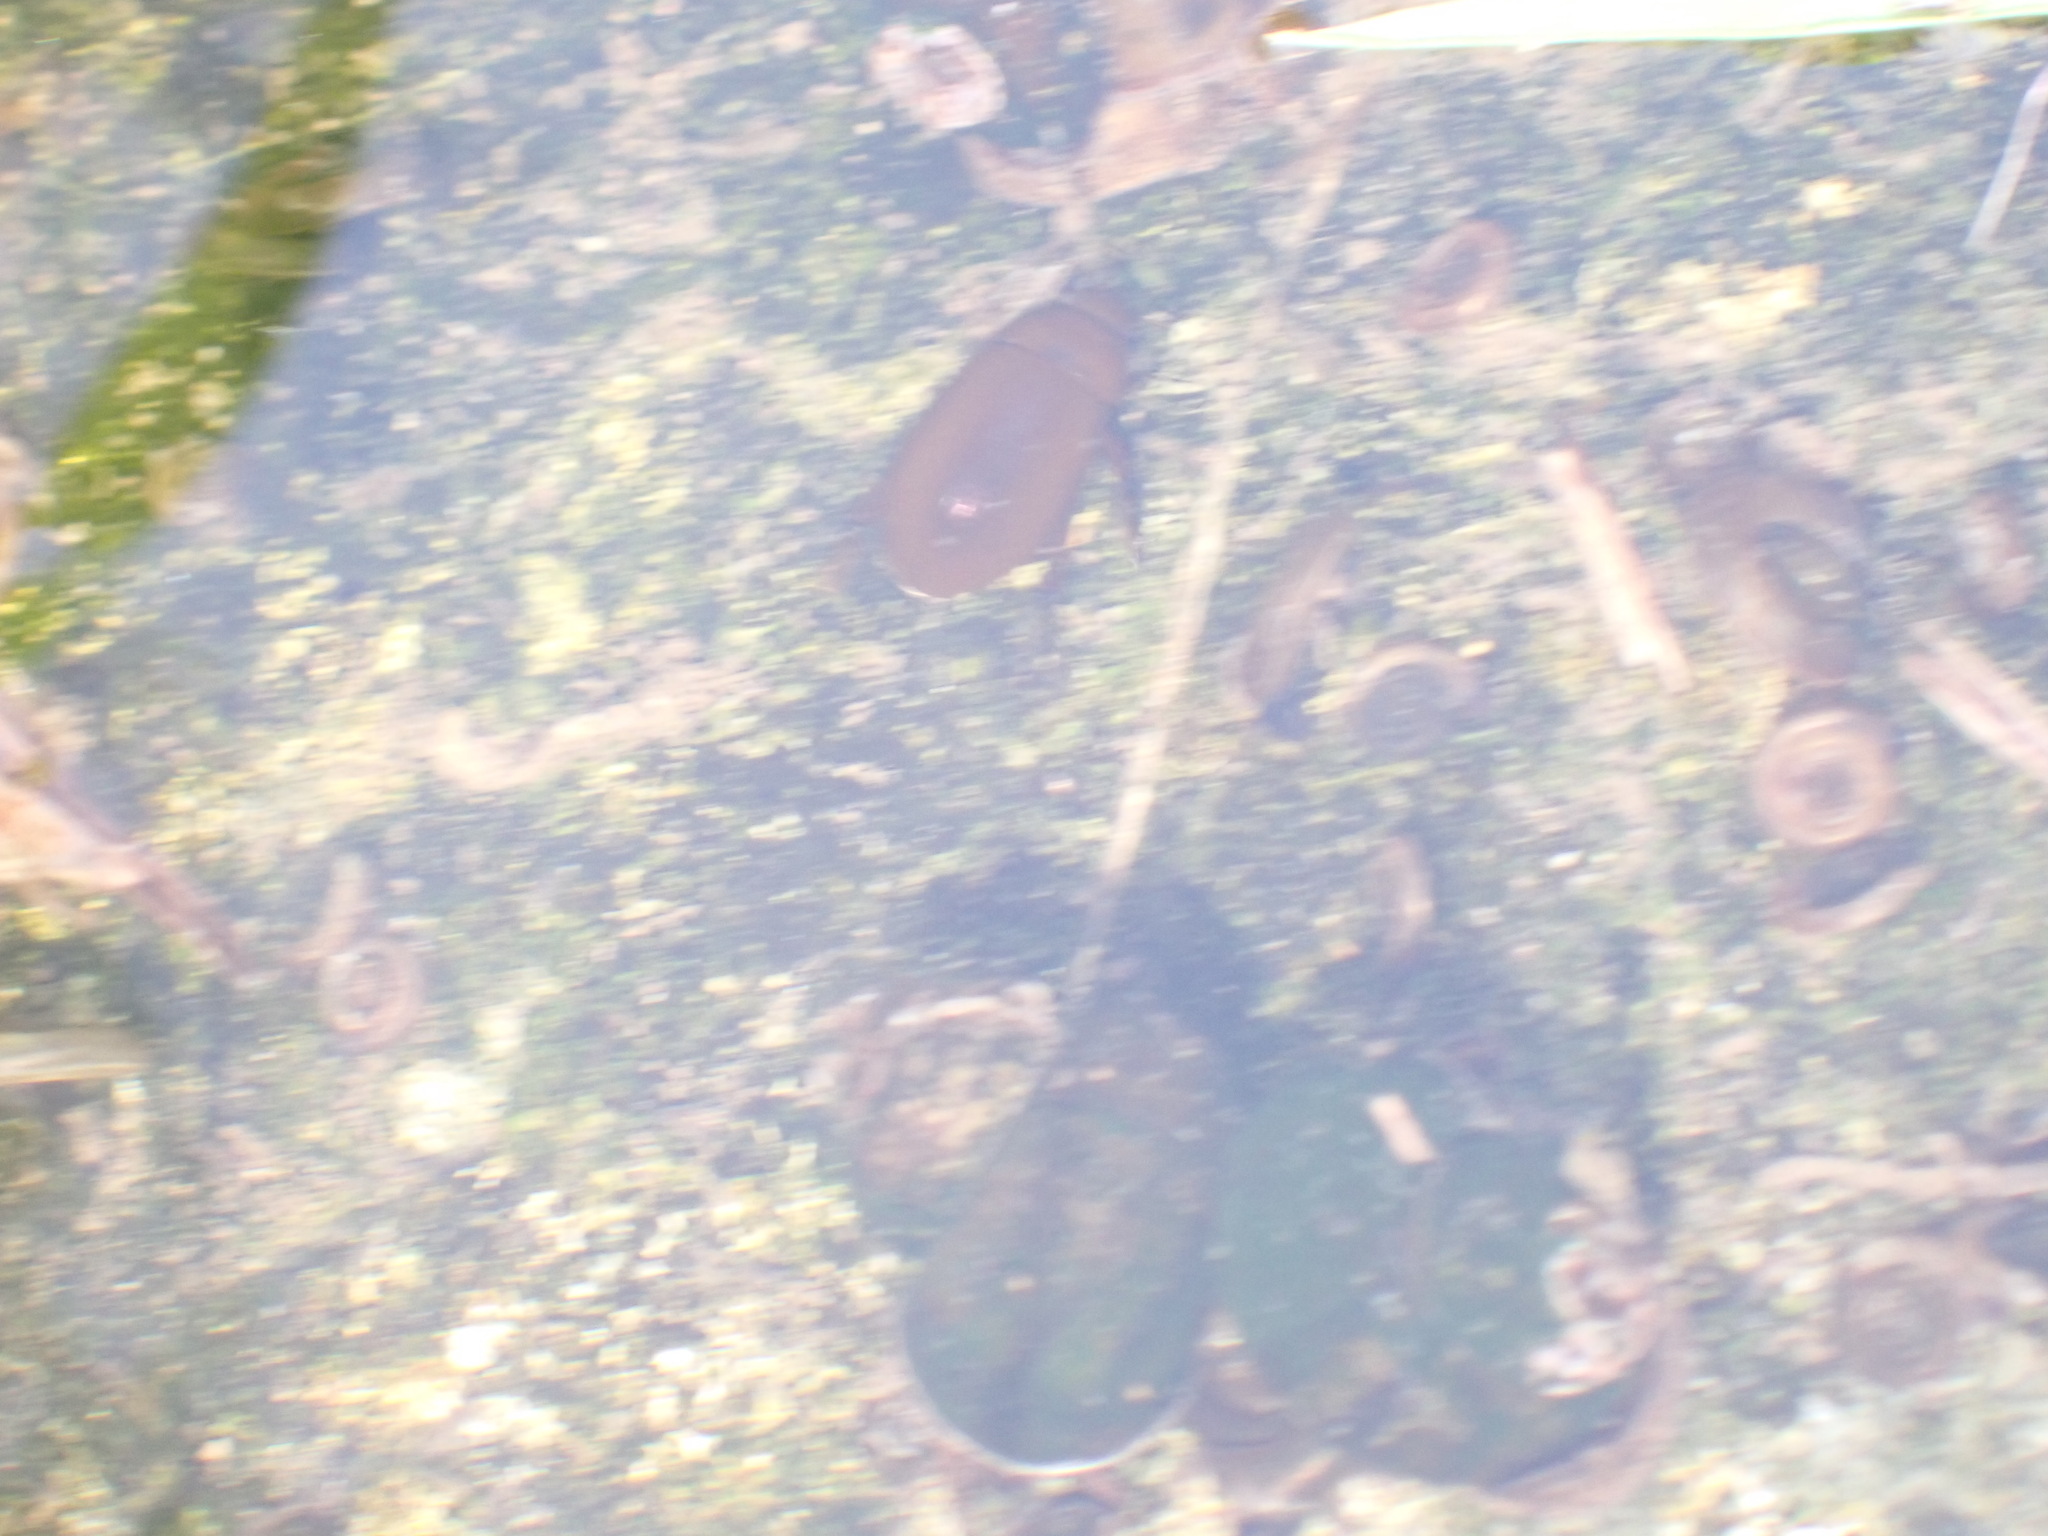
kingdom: Animalia
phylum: Arthropoda
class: Insecta
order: Coleoptera
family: Hydrophilidae
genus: Hydrochara
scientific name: Hydrochara caraboides
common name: Lesser silver water beetle
